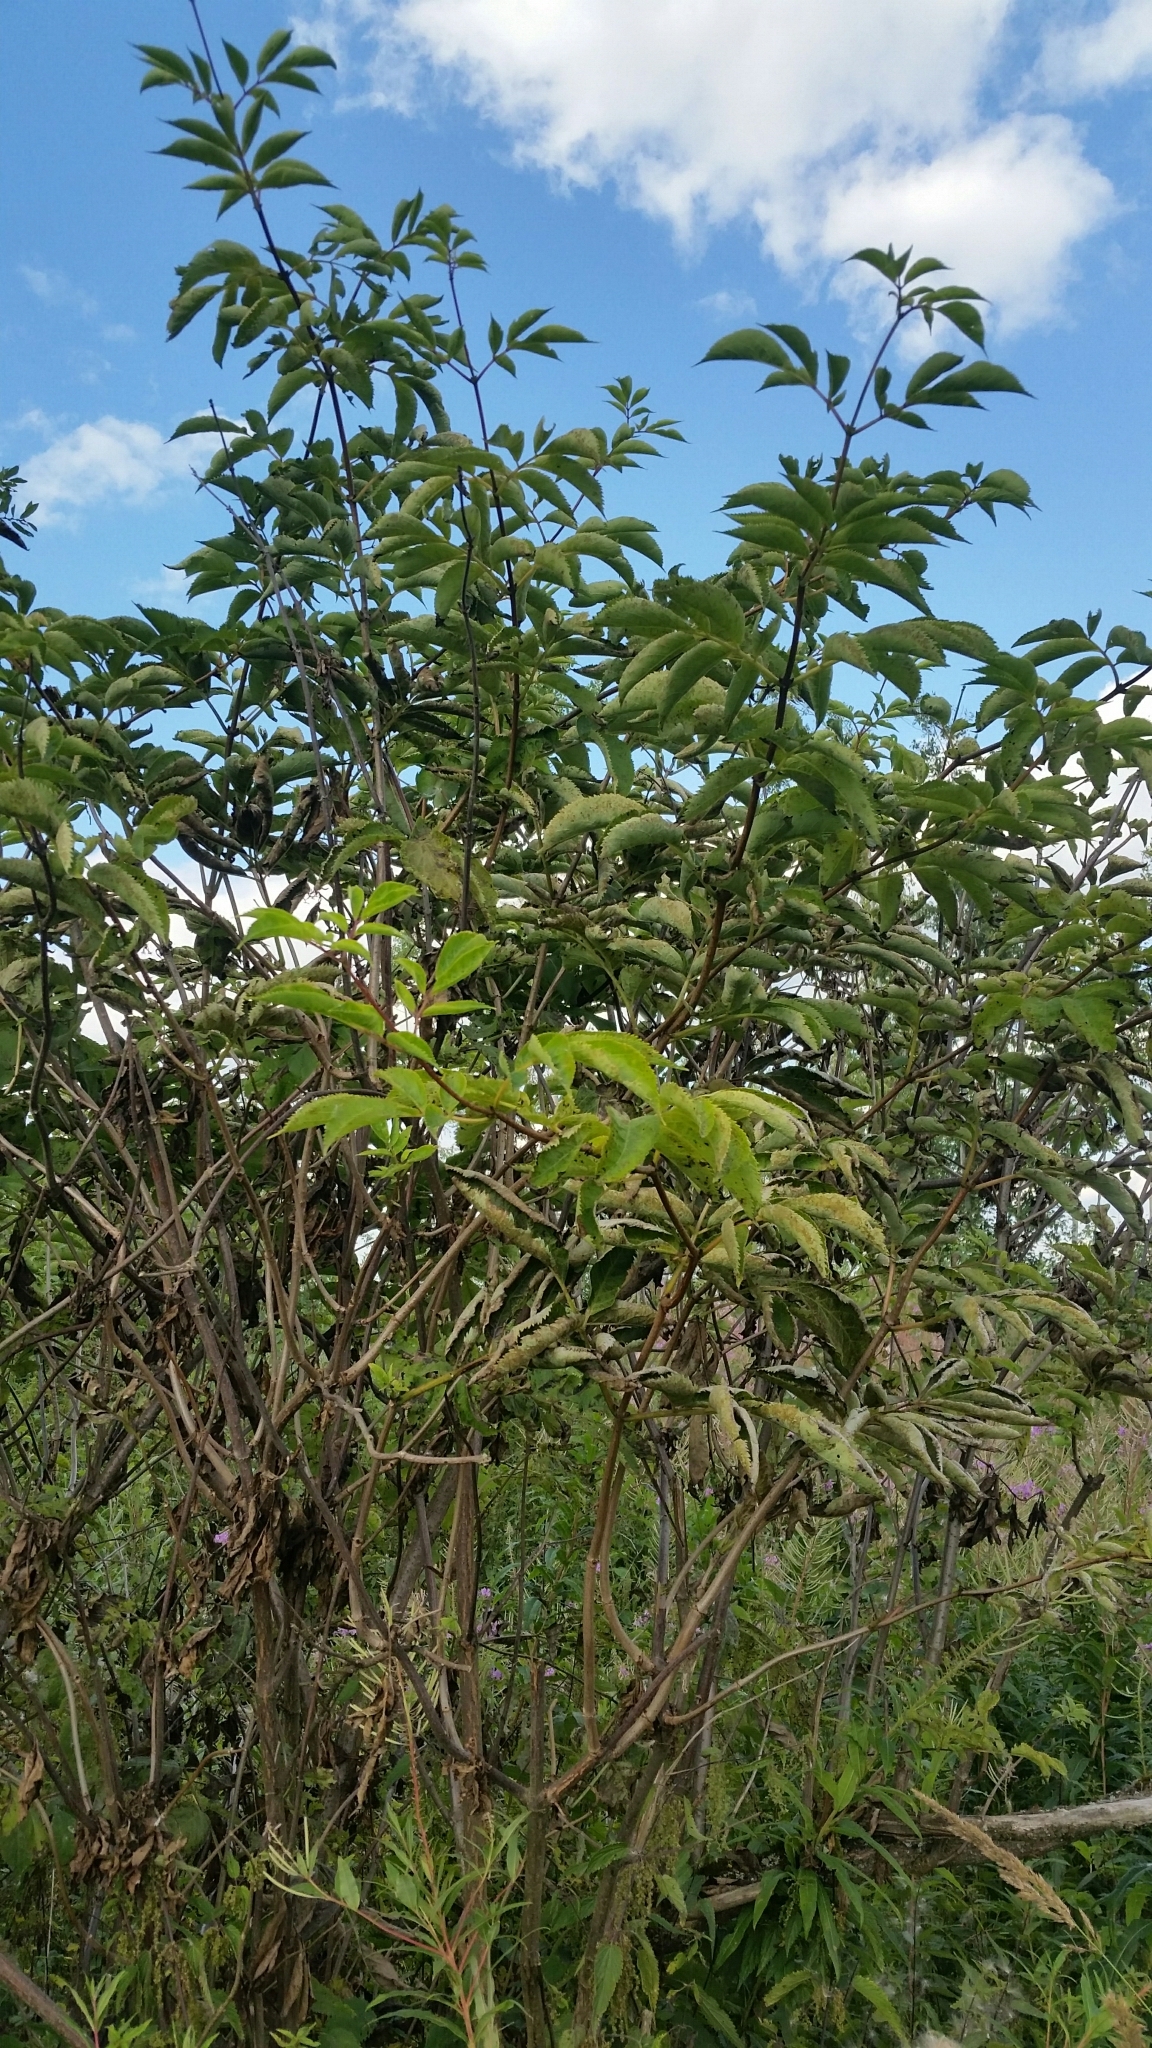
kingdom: Plantae
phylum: Tracheophyta
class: Magnoliopsida
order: Dipsacales
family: Viburnaceae
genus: Sambucus
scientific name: Sambucus racemosa
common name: Red-berried elder
